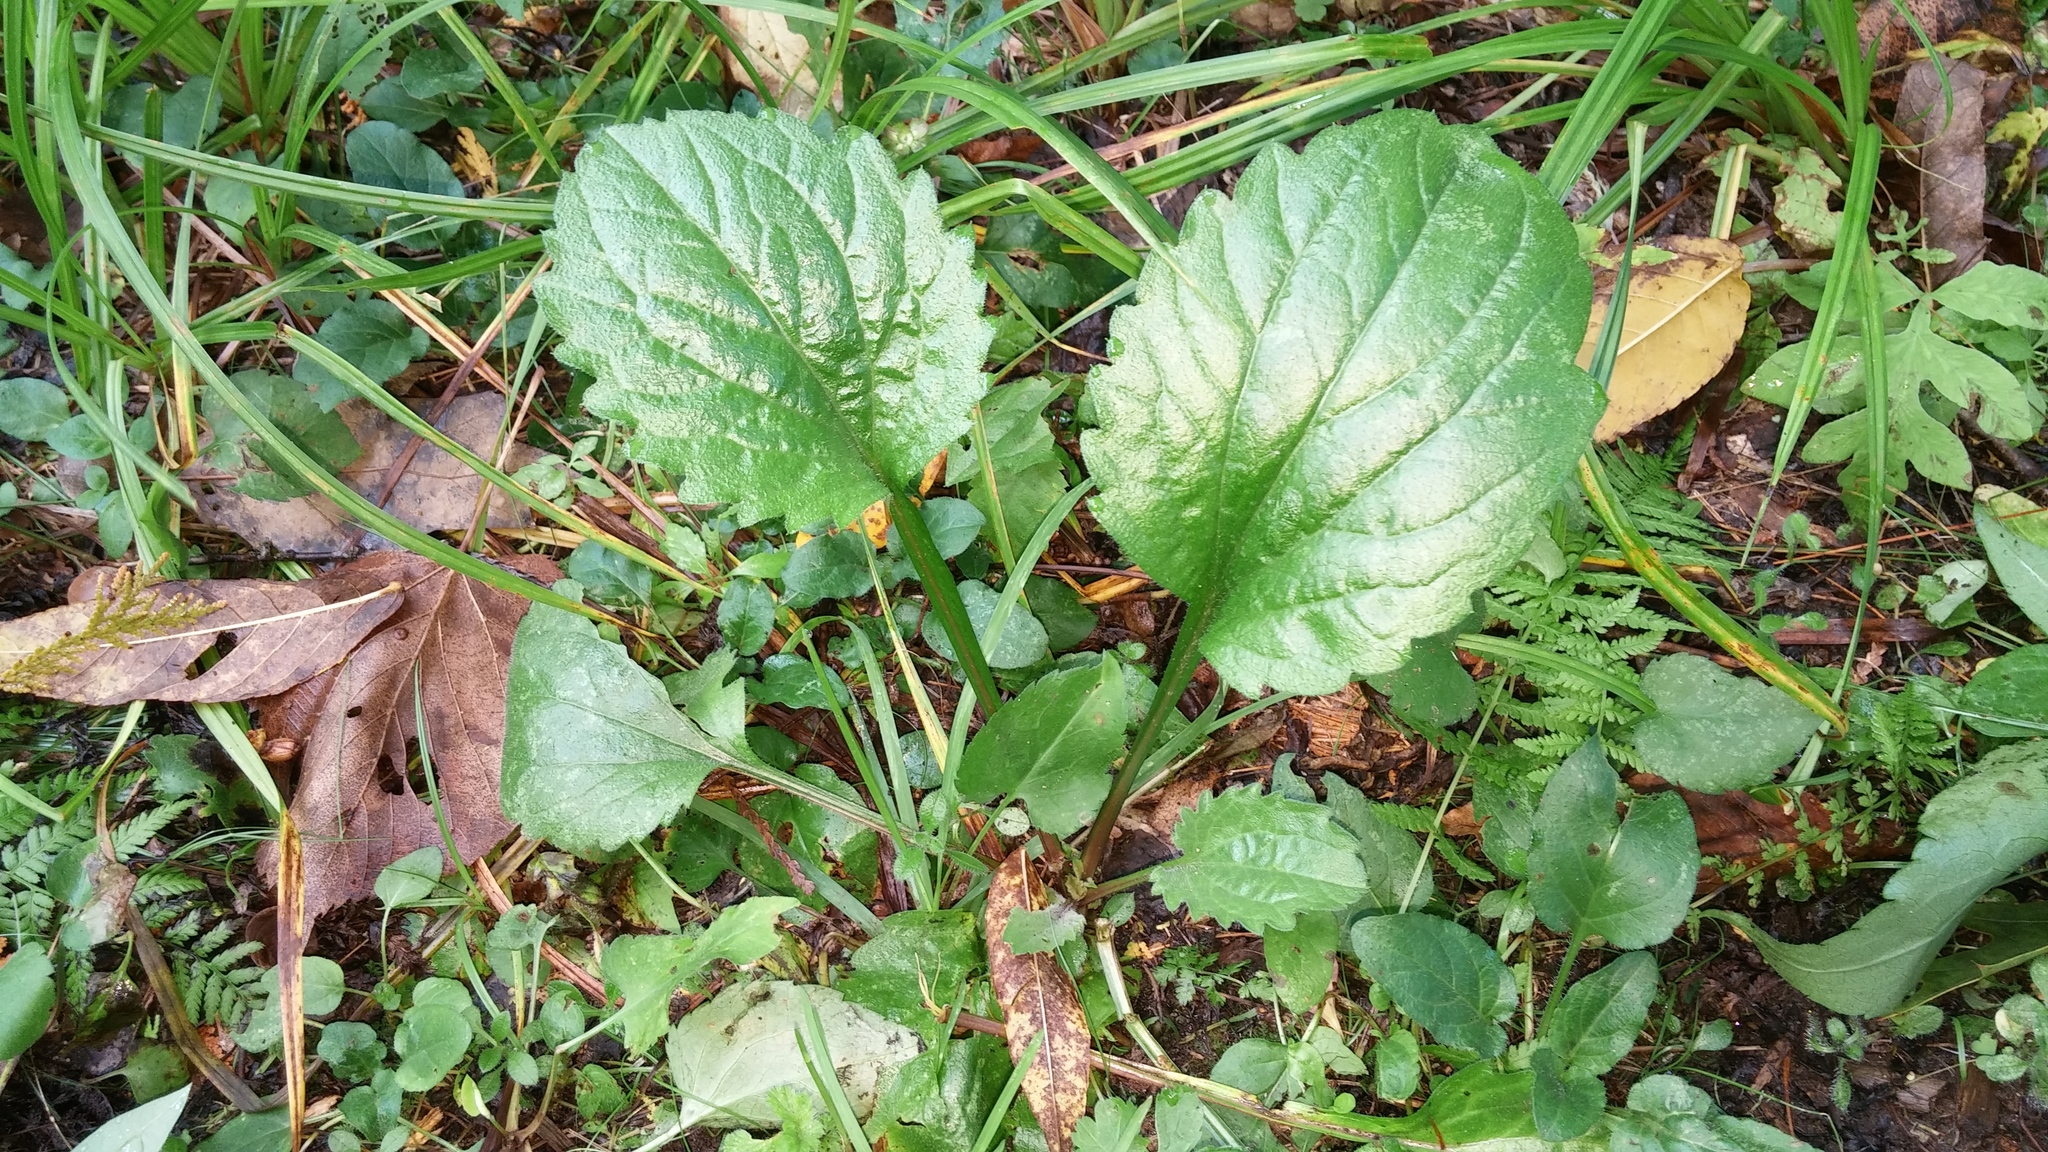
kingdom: Plantae
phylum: Tracheophyta
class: Magnoliopsida
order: Asterales
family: Asteraceae
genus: Erigeron
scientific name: Erigeron annuus
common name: Tall fleabane
